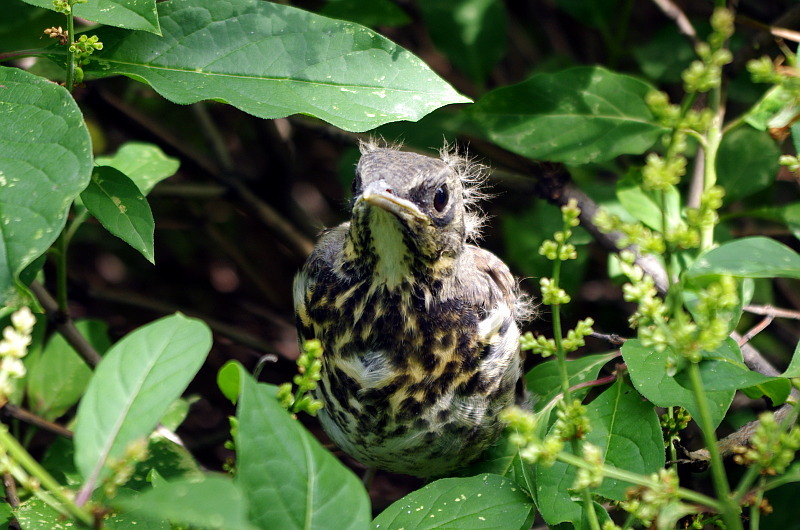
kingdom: Animalia
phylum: Chordata
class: Aves
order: Passeriformes
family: Turdidae
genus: Turdus
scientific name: Turdus pilaris
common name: Fieldfare
